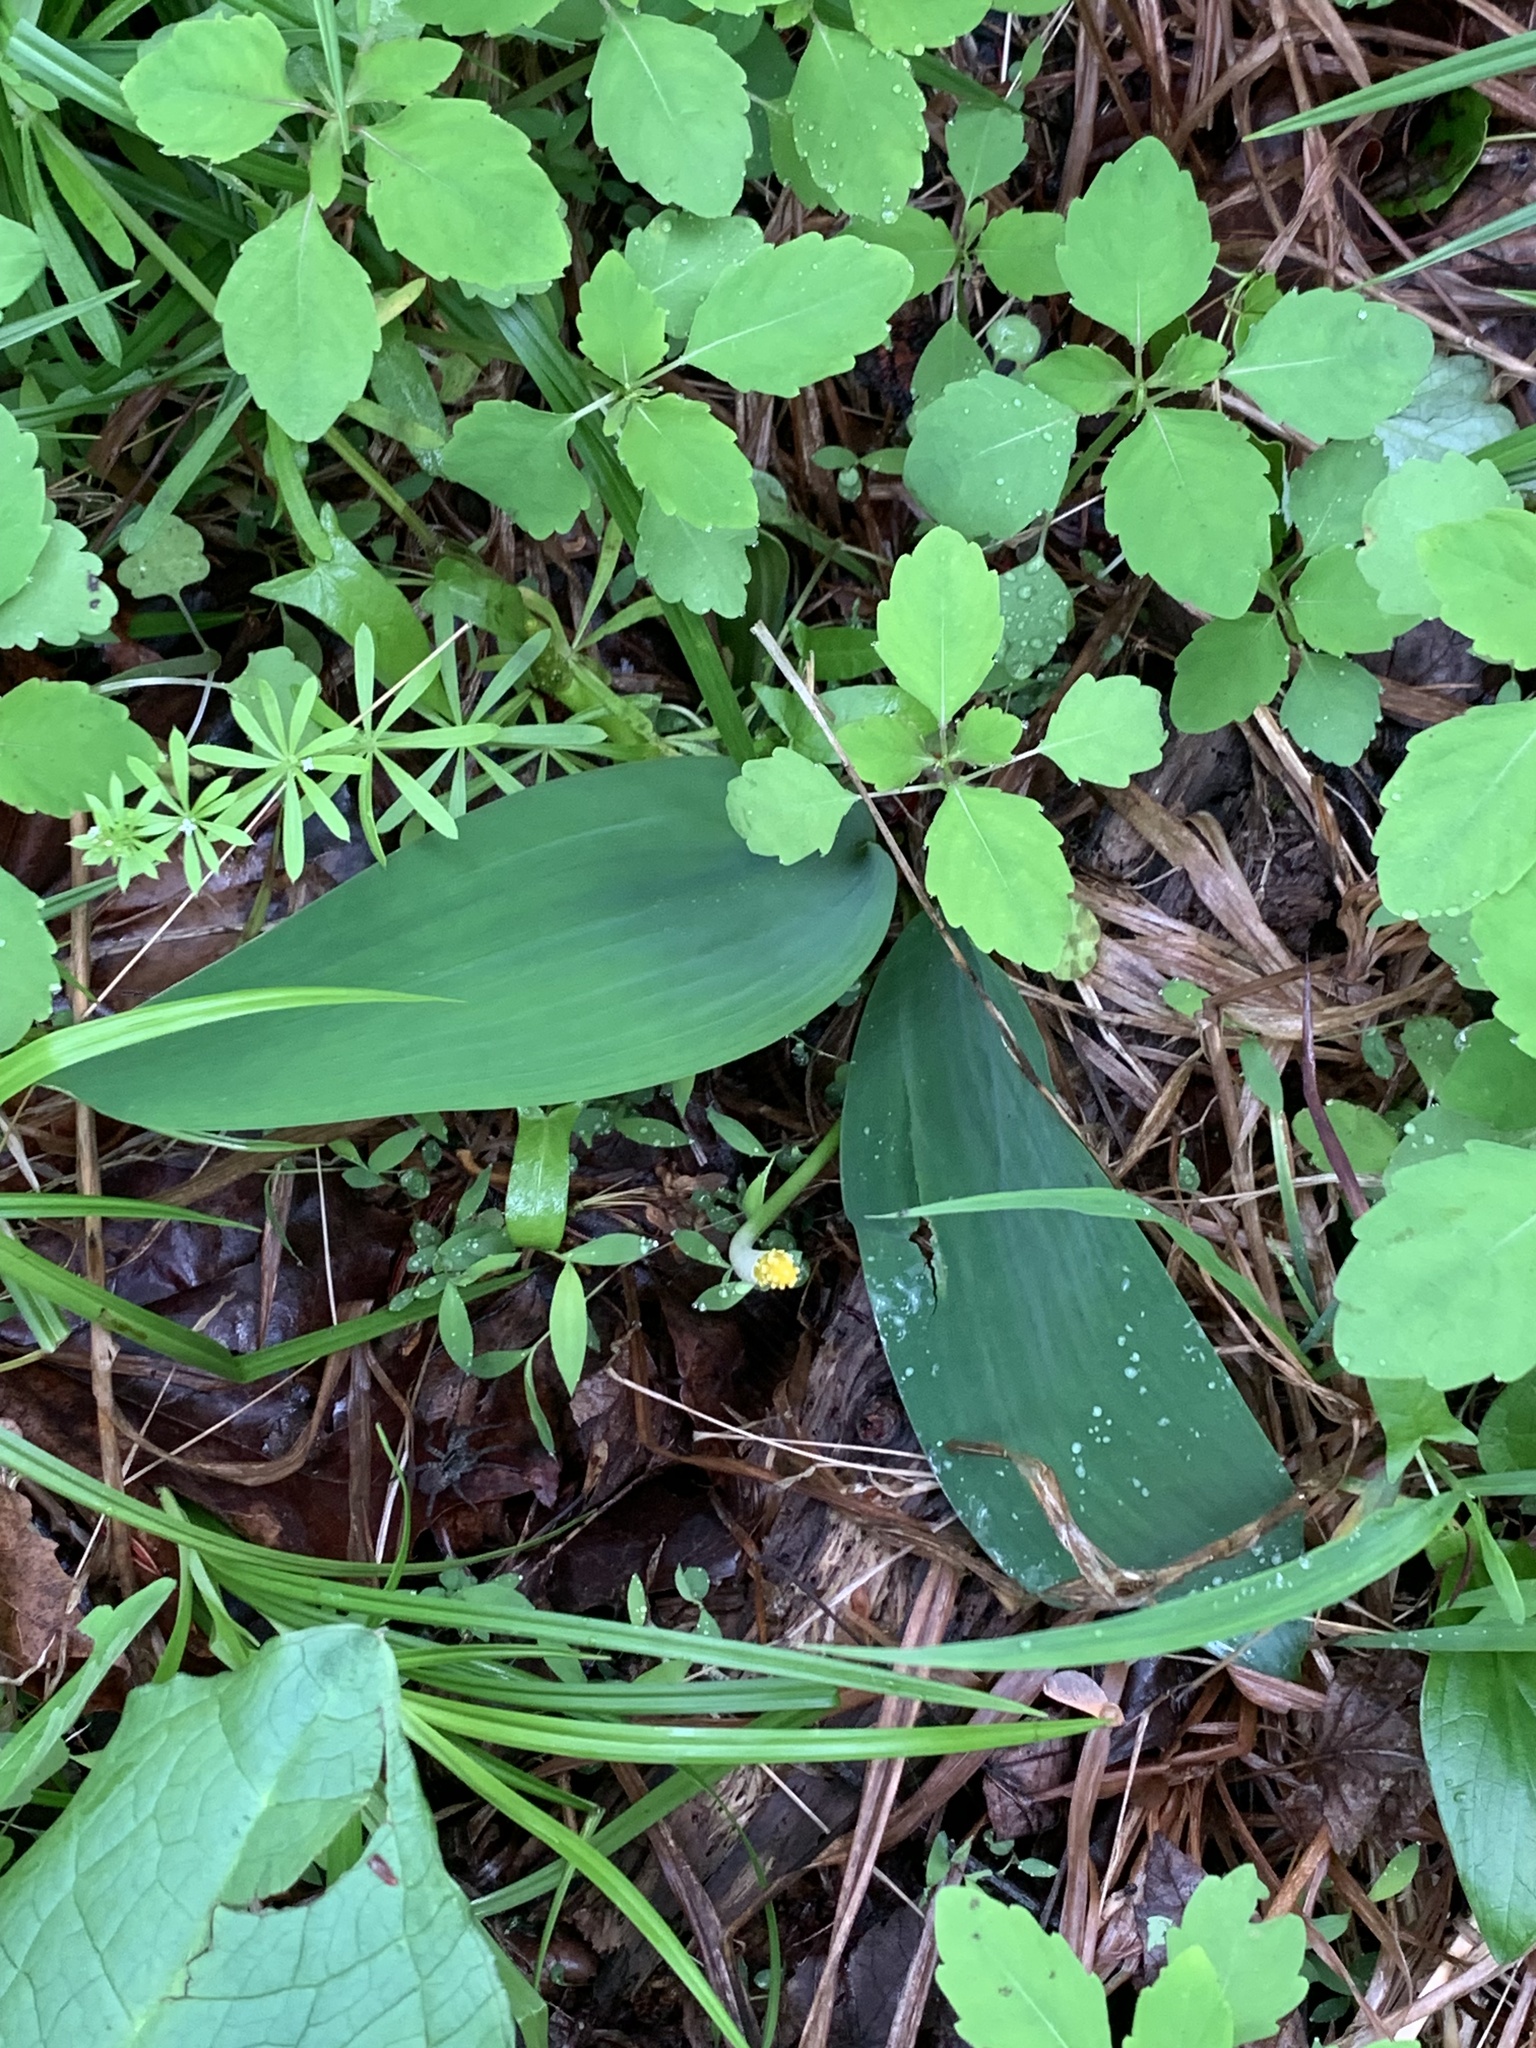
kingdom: Plantae
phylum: Tracheophyta
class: Liliopsida
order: Alismatales
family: Araceae
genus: Orontium
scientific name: Orontium aquaticum
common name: Golden-club
